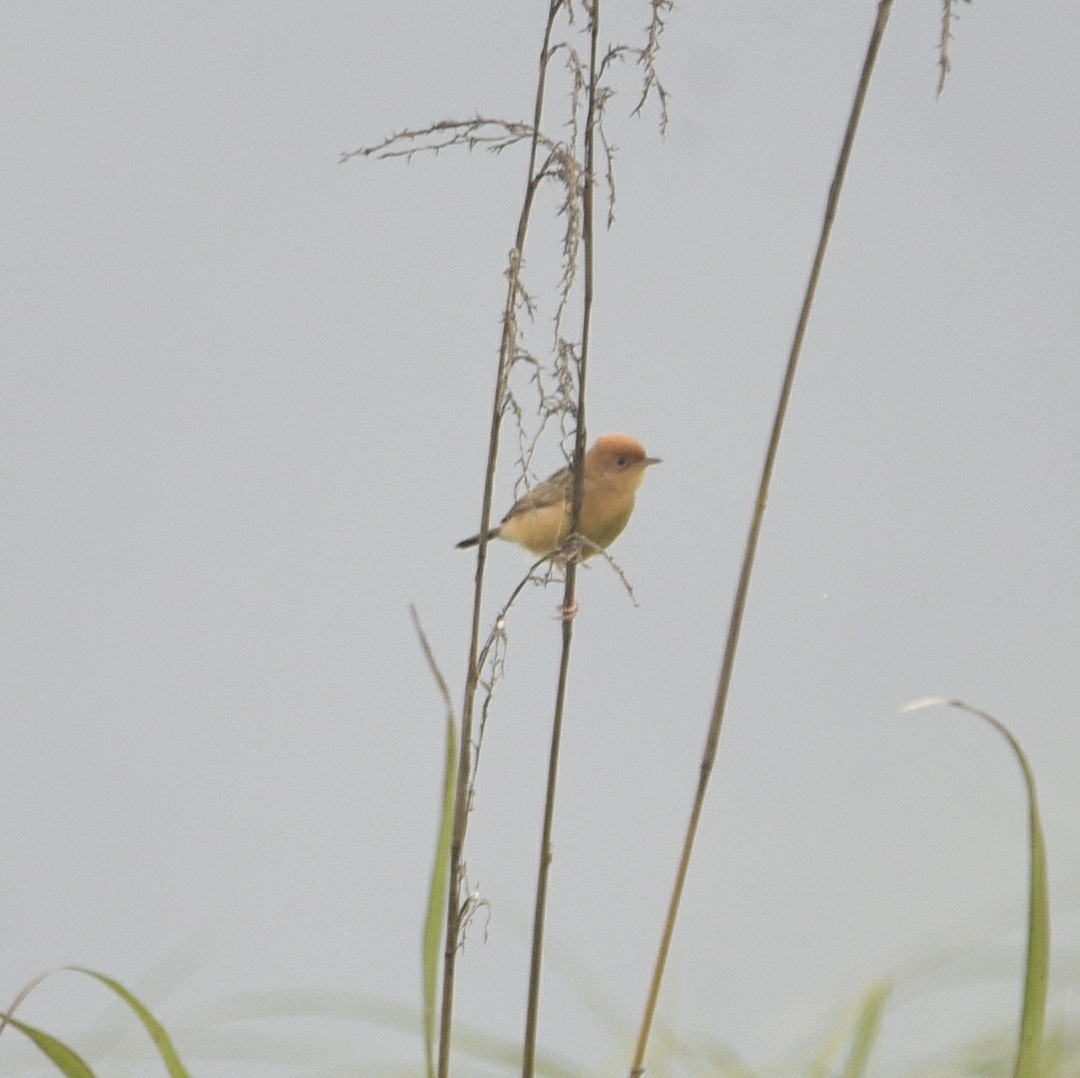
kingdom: Animalia
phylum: Chordata
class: Aves
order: Passeriformes
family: Cisticolidae
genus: Cisticola
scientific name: Cisticola exilis
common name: Golden-headed cisticola
